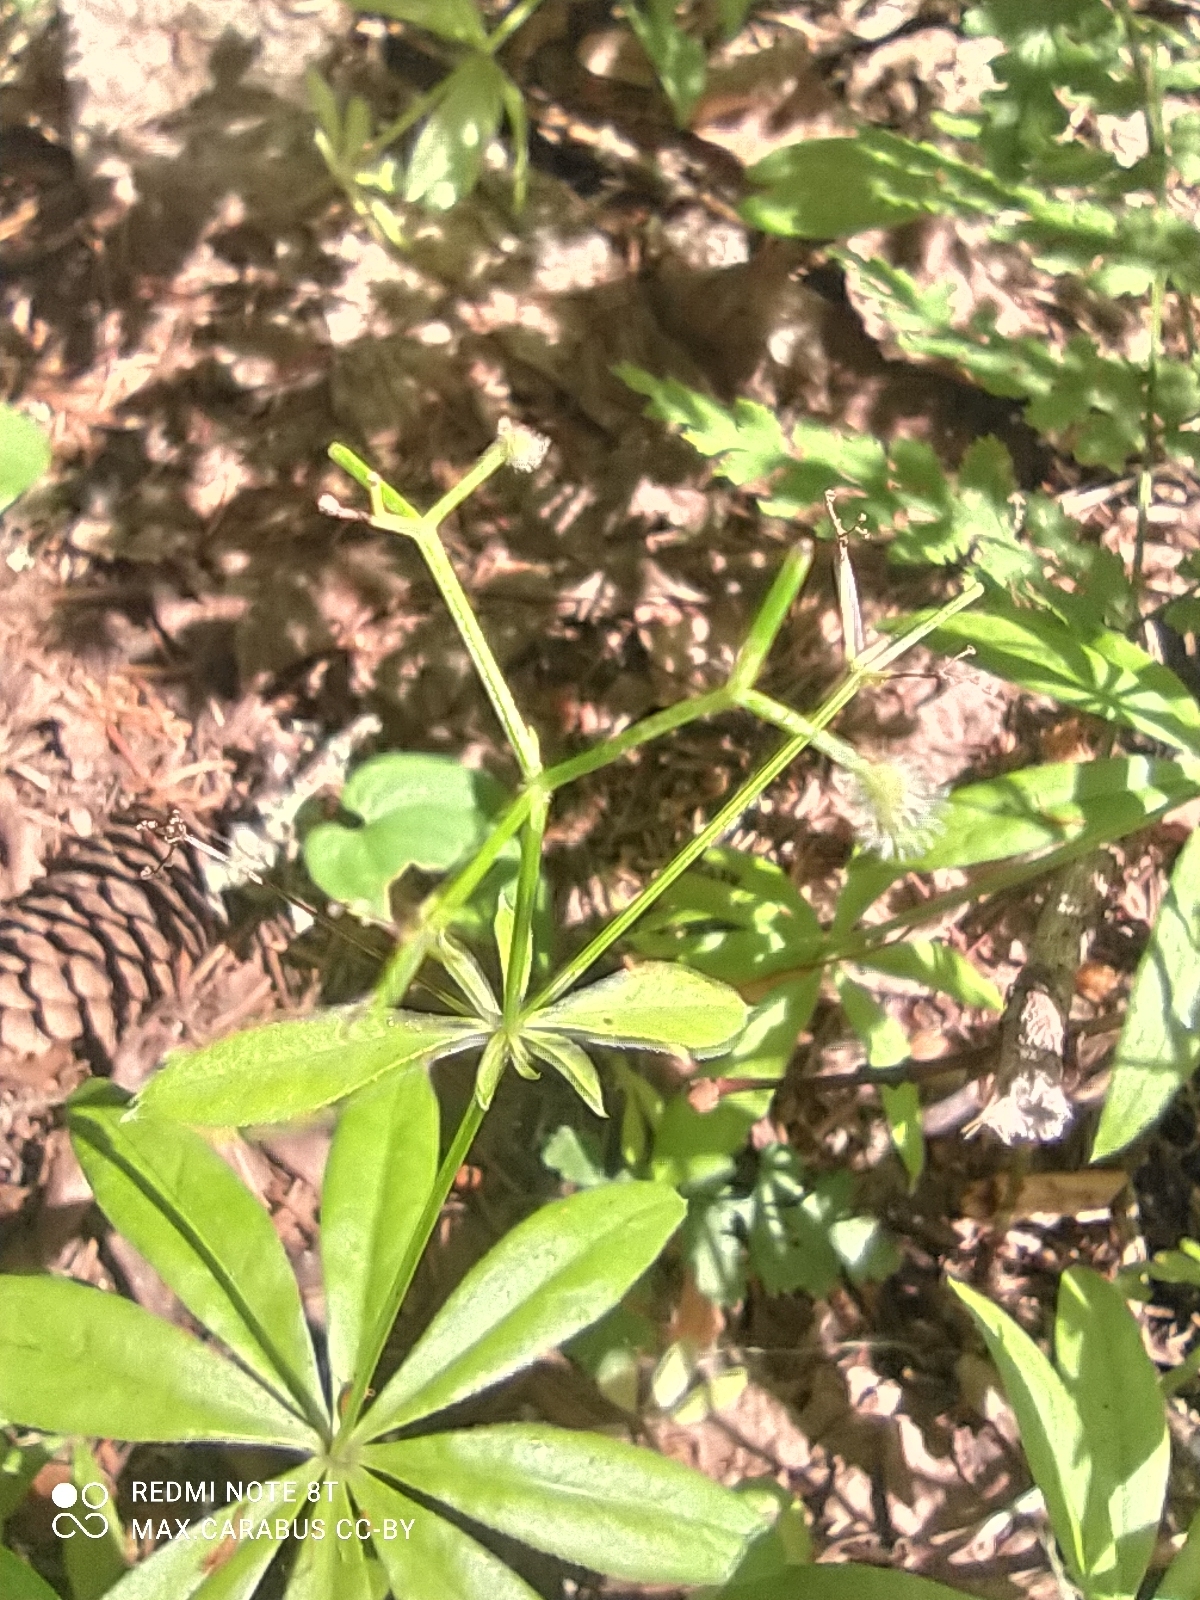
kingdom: Plantae
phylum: Tracheophyta
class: Magnoliopsida
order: Gentianales
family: Rubiaceae
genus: Galium
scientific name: Galium odoratum
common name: Sweet woodruff
